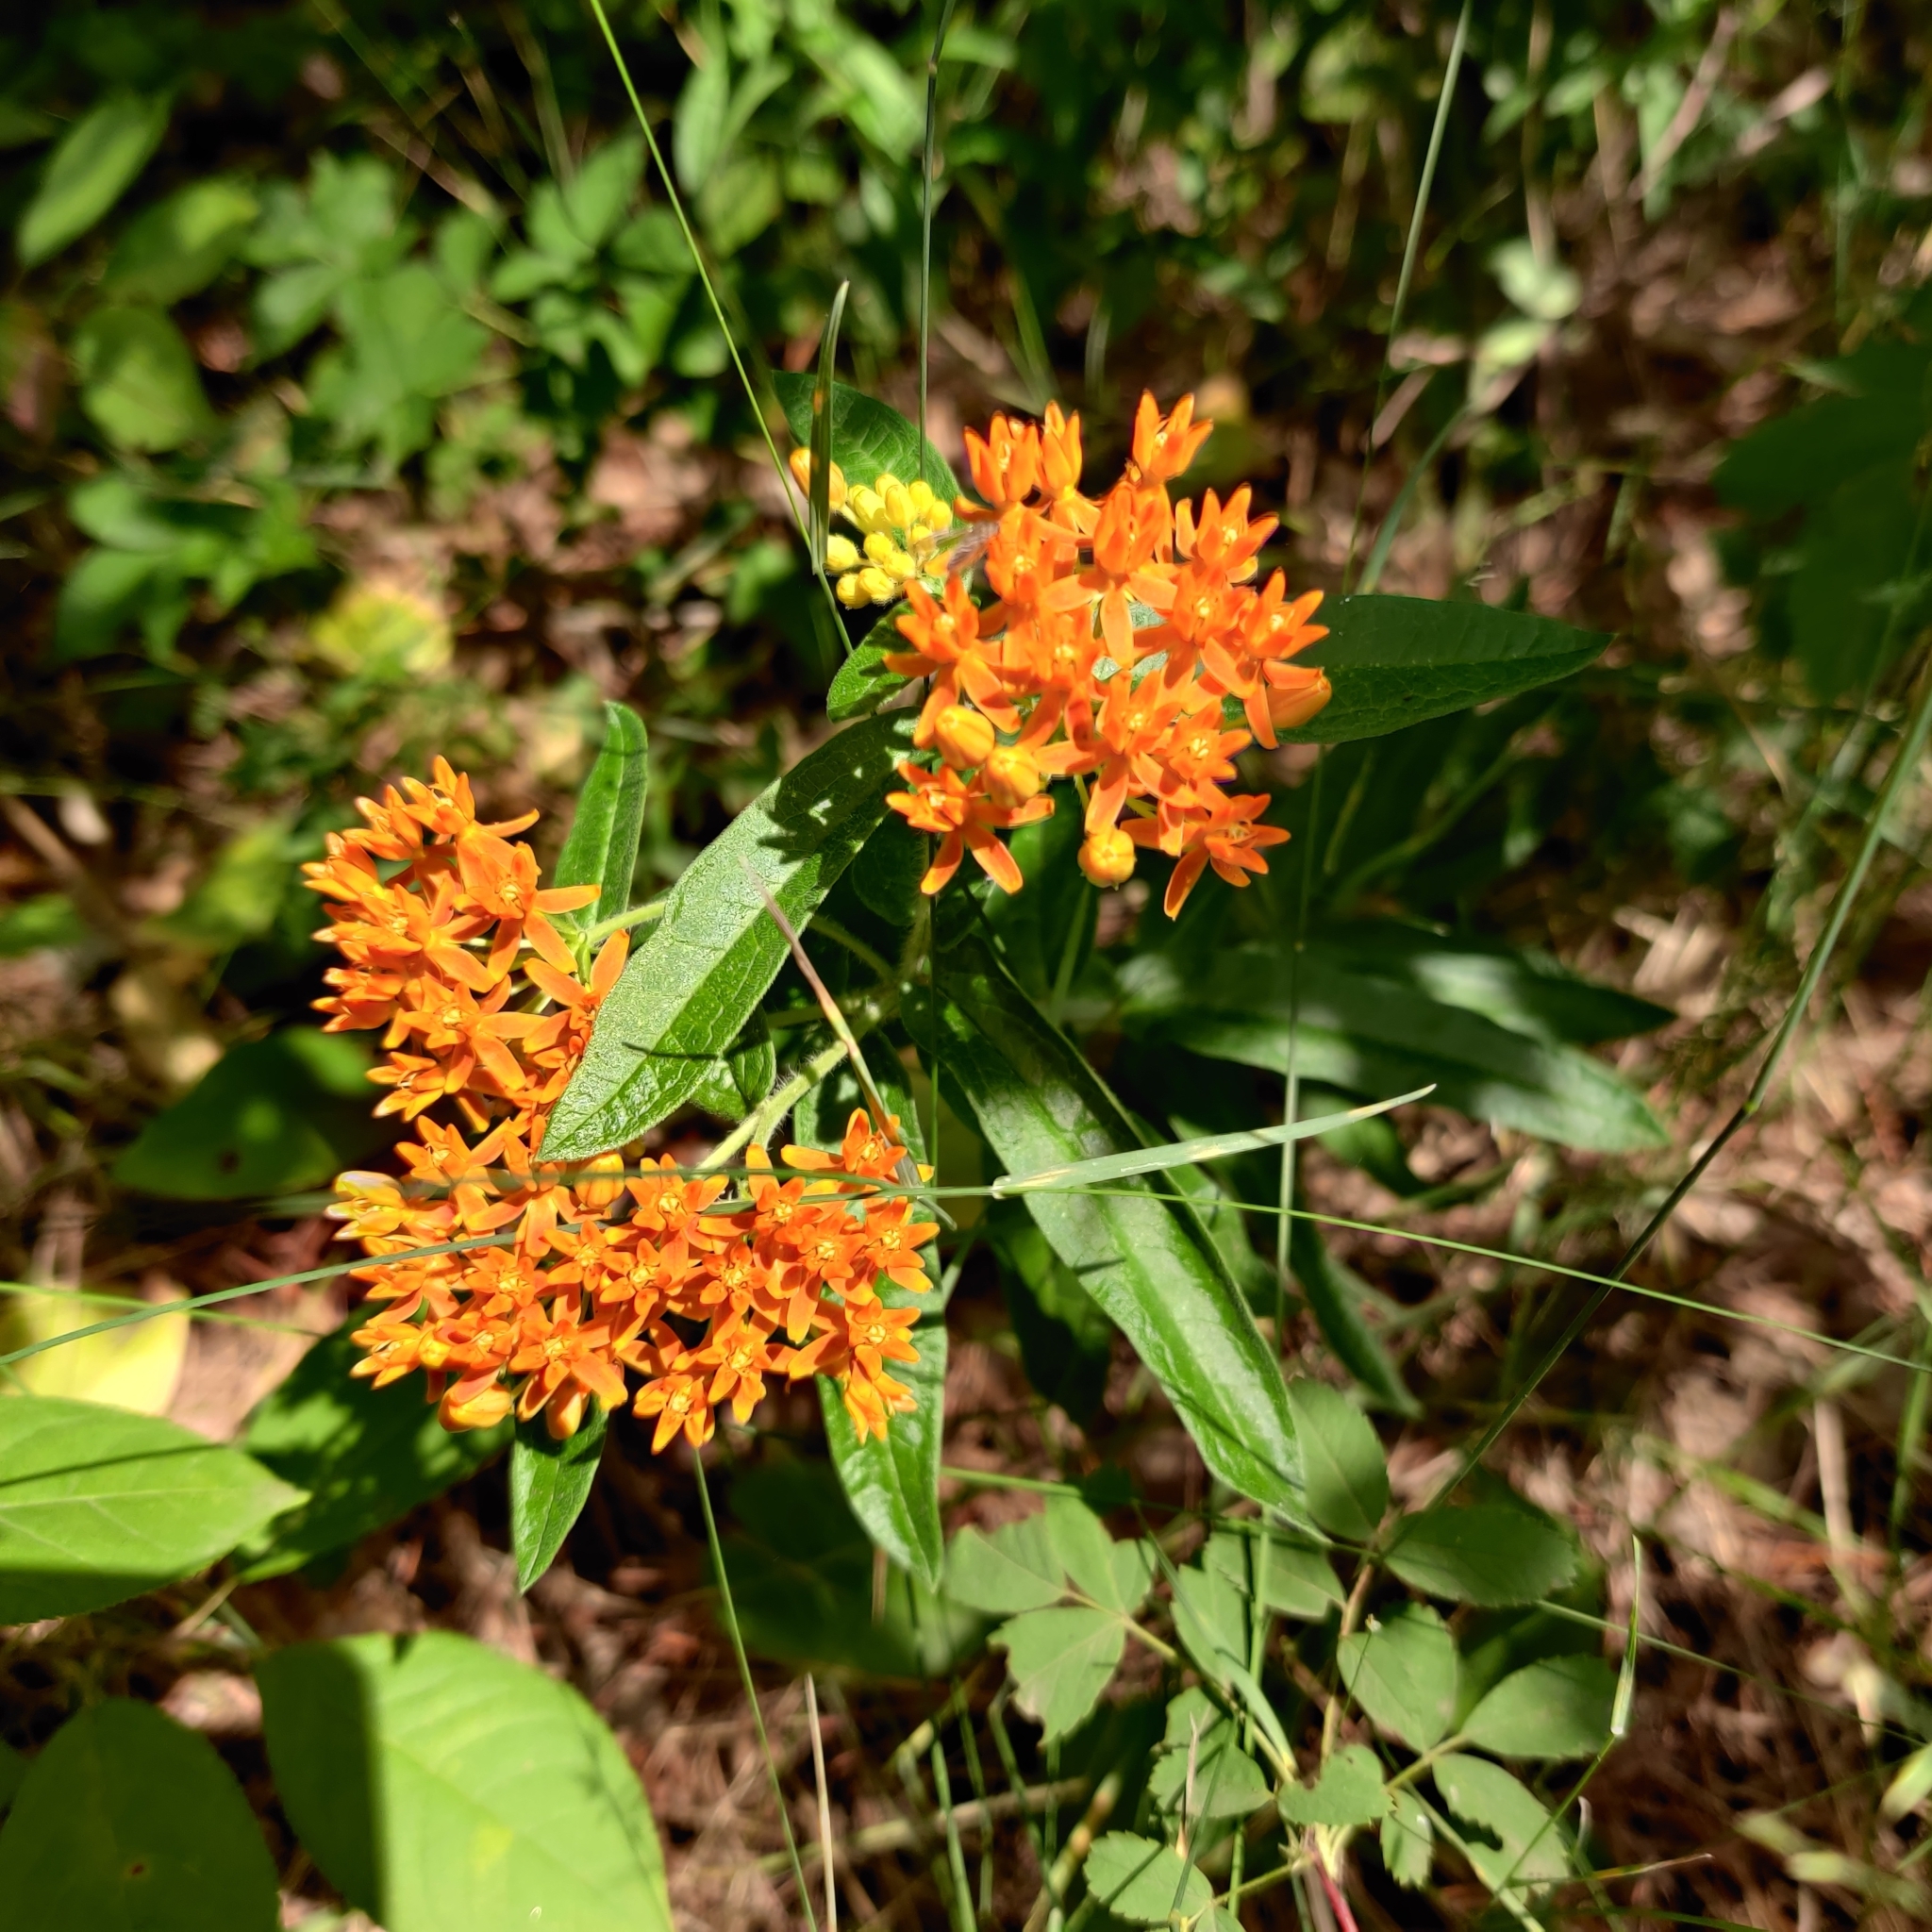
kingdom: Plantae
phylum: Tracheophyta
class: Magnoliopsida
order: Gentianales
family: Apocynaceae
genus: Asclepias
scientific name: Asclepias tuberosa
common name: Butterfly milkweed
